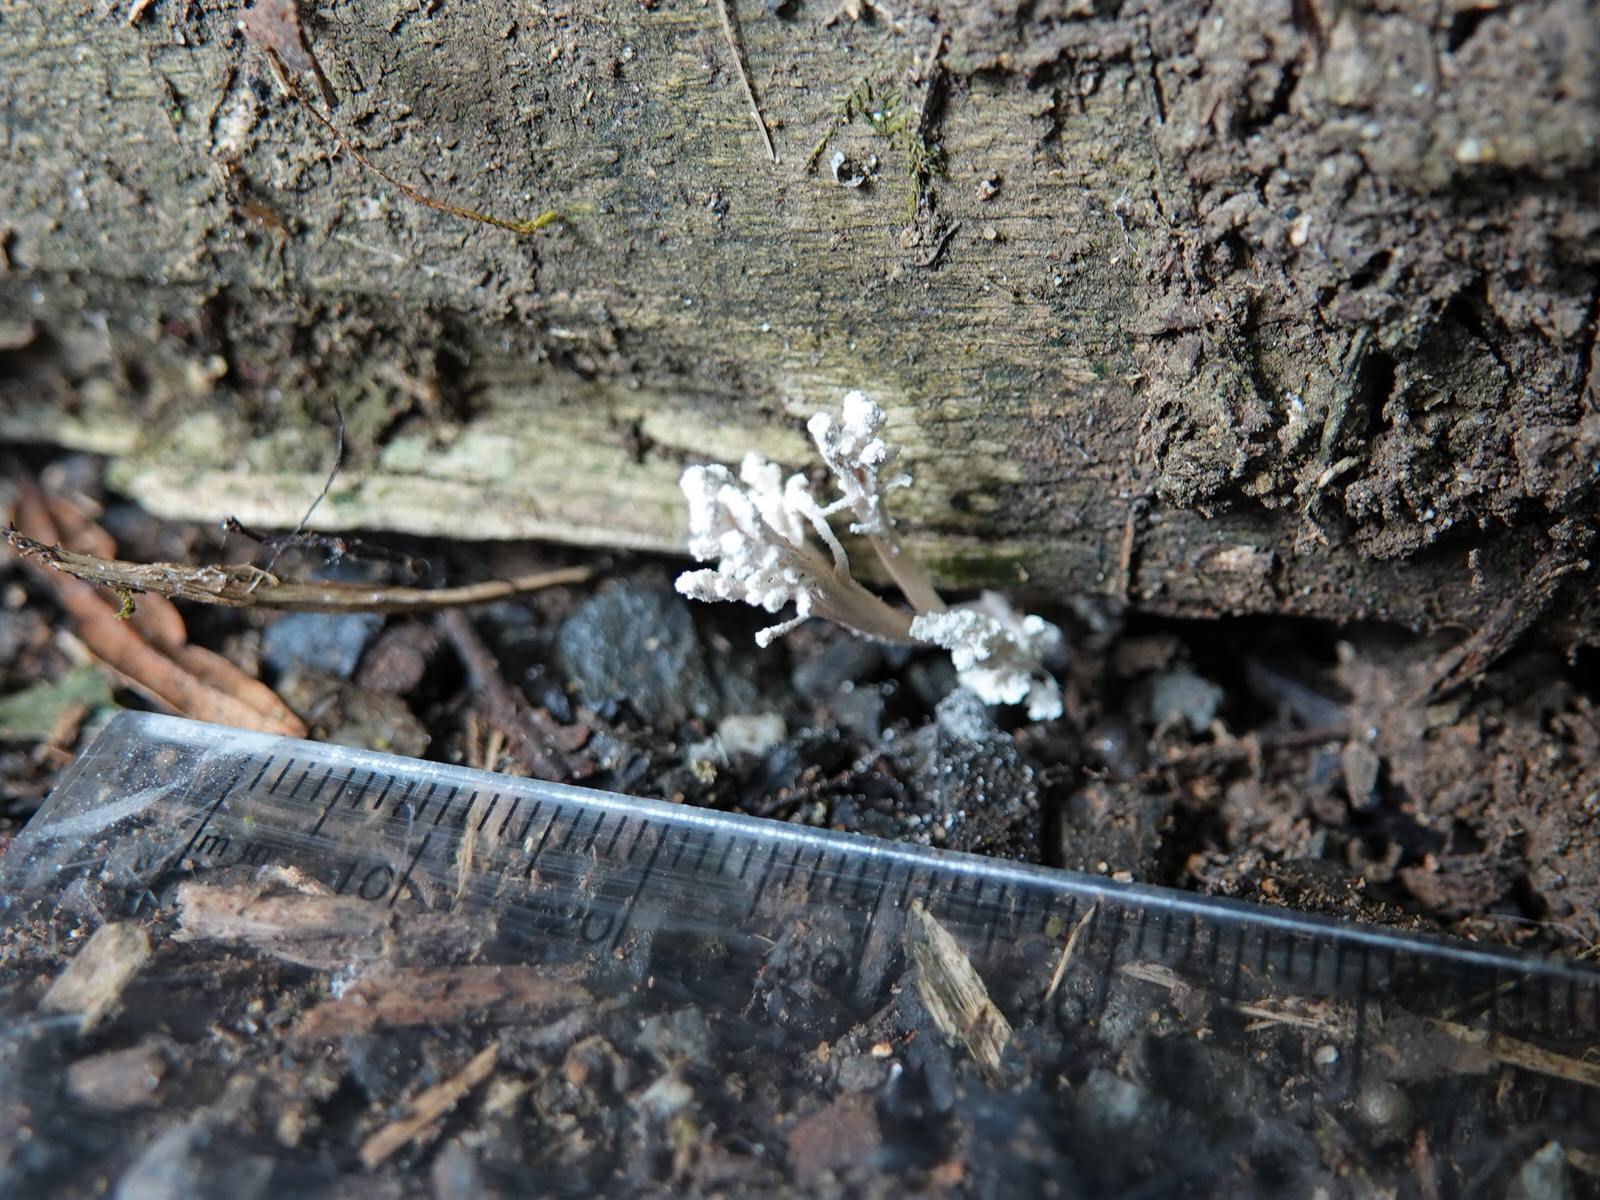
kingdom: Fungi
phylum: Ascomycota
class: Sordariomycetes
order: Hypocreales
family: Cordycipitaceae
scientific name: Cordycipitaceae
